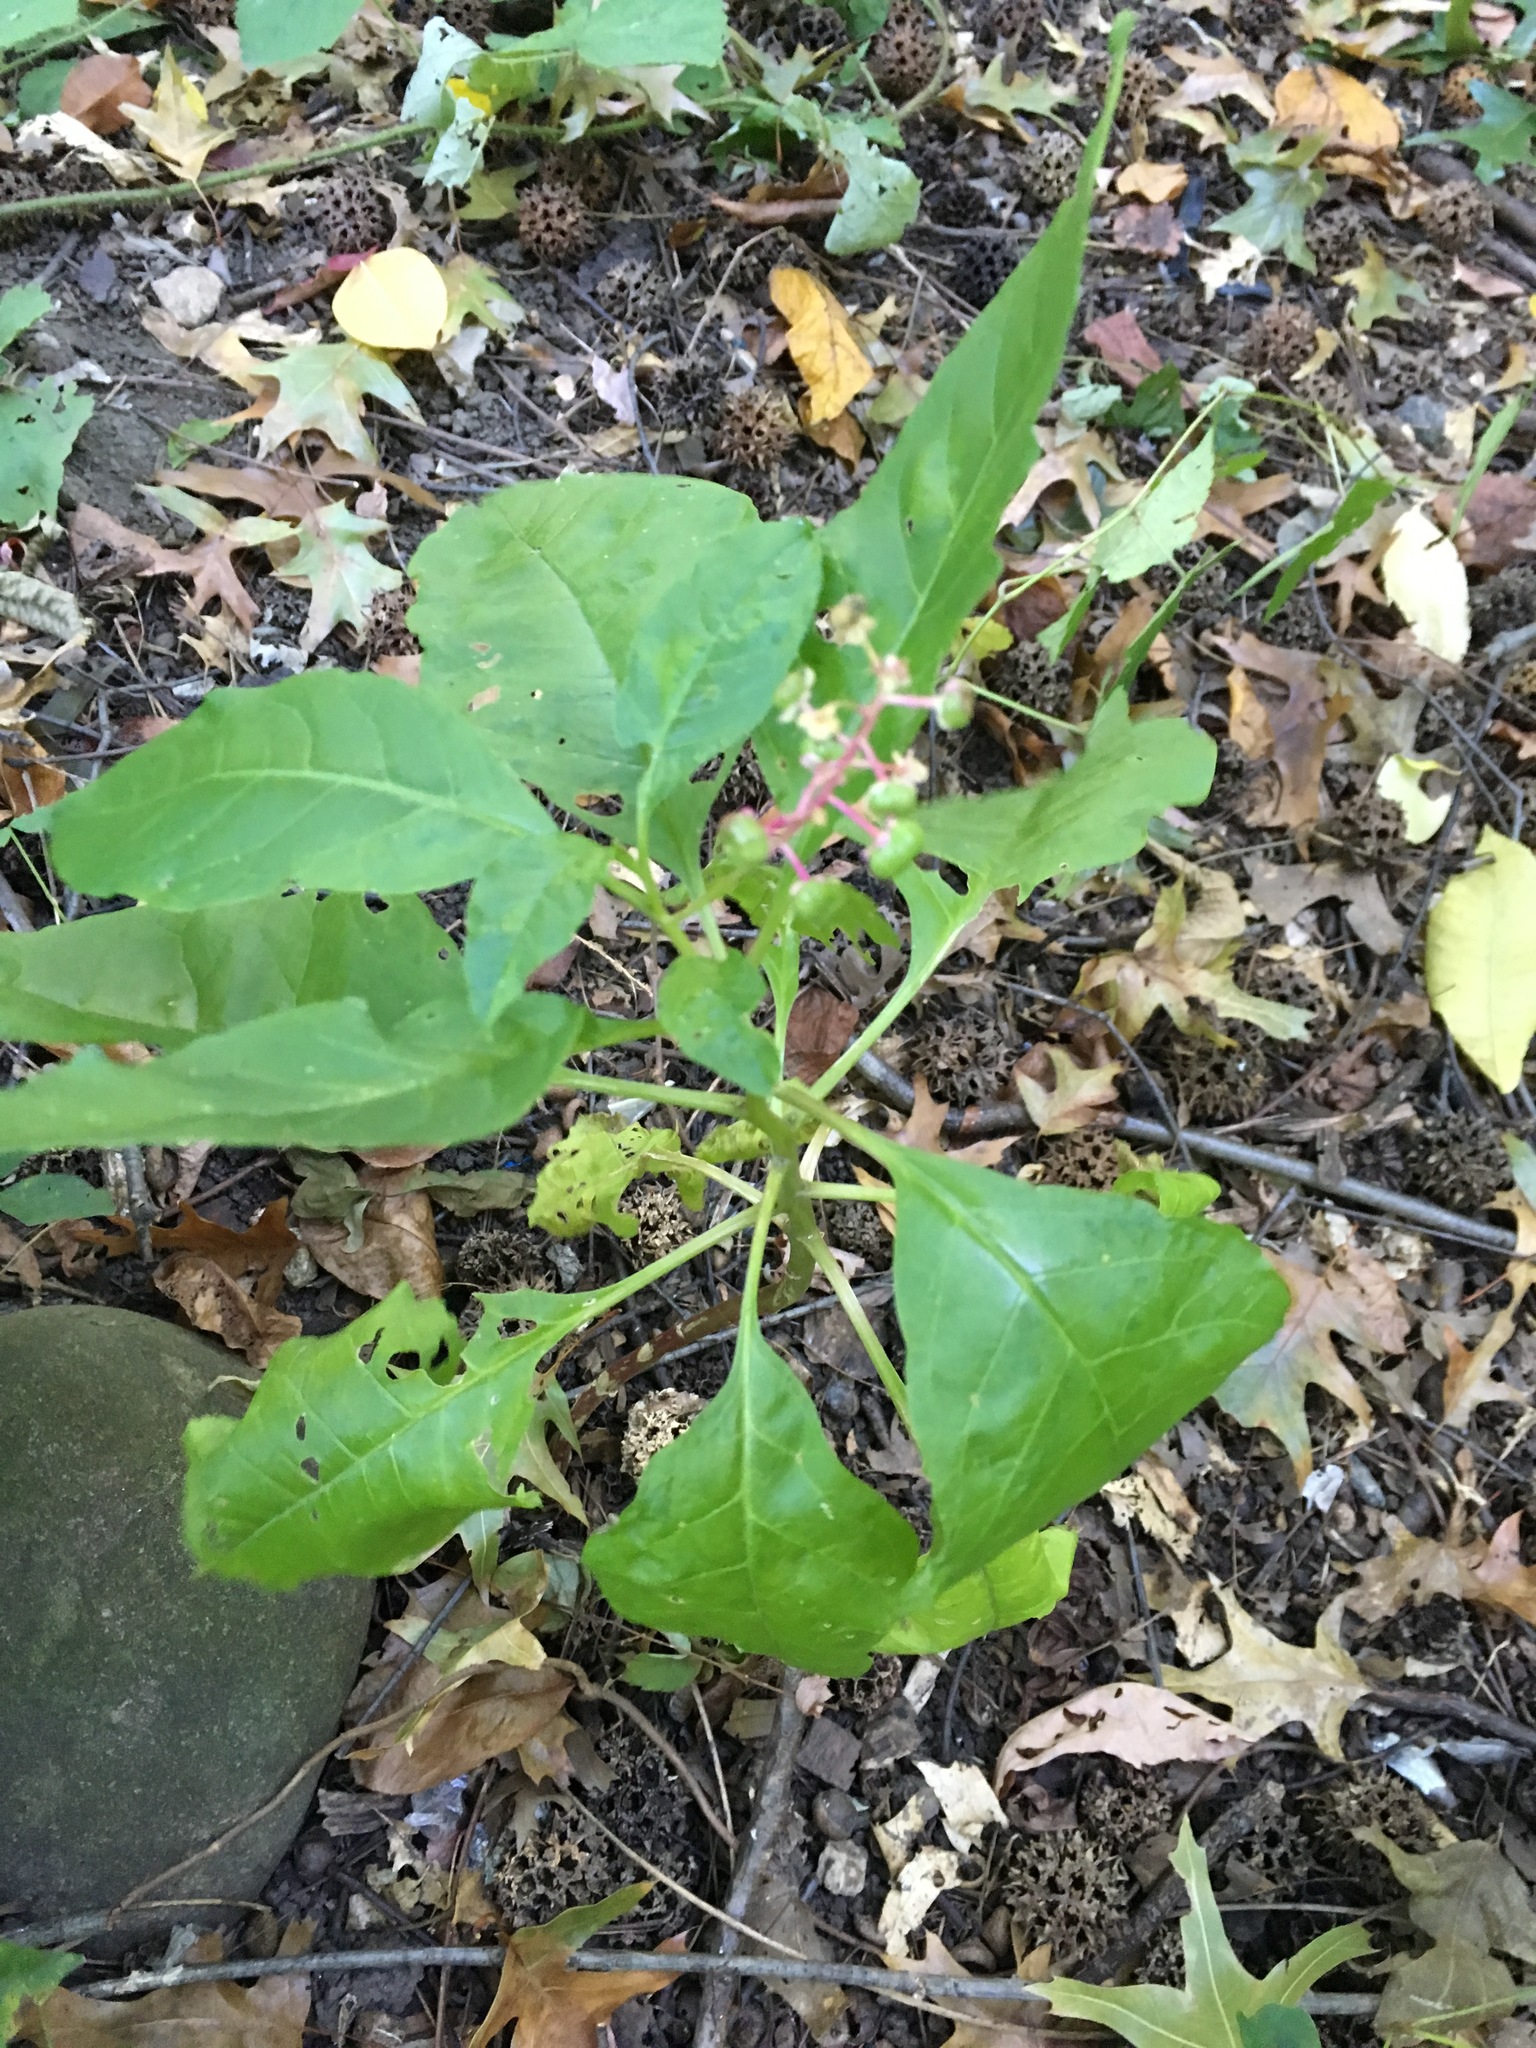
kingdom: Plantae
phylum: Tracheophyta
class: Magnoliopsida
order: Caryophyllales
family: Phytolaccaceae
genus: Phytolacca
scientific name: Phytolacca americana
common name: American pokeweed
